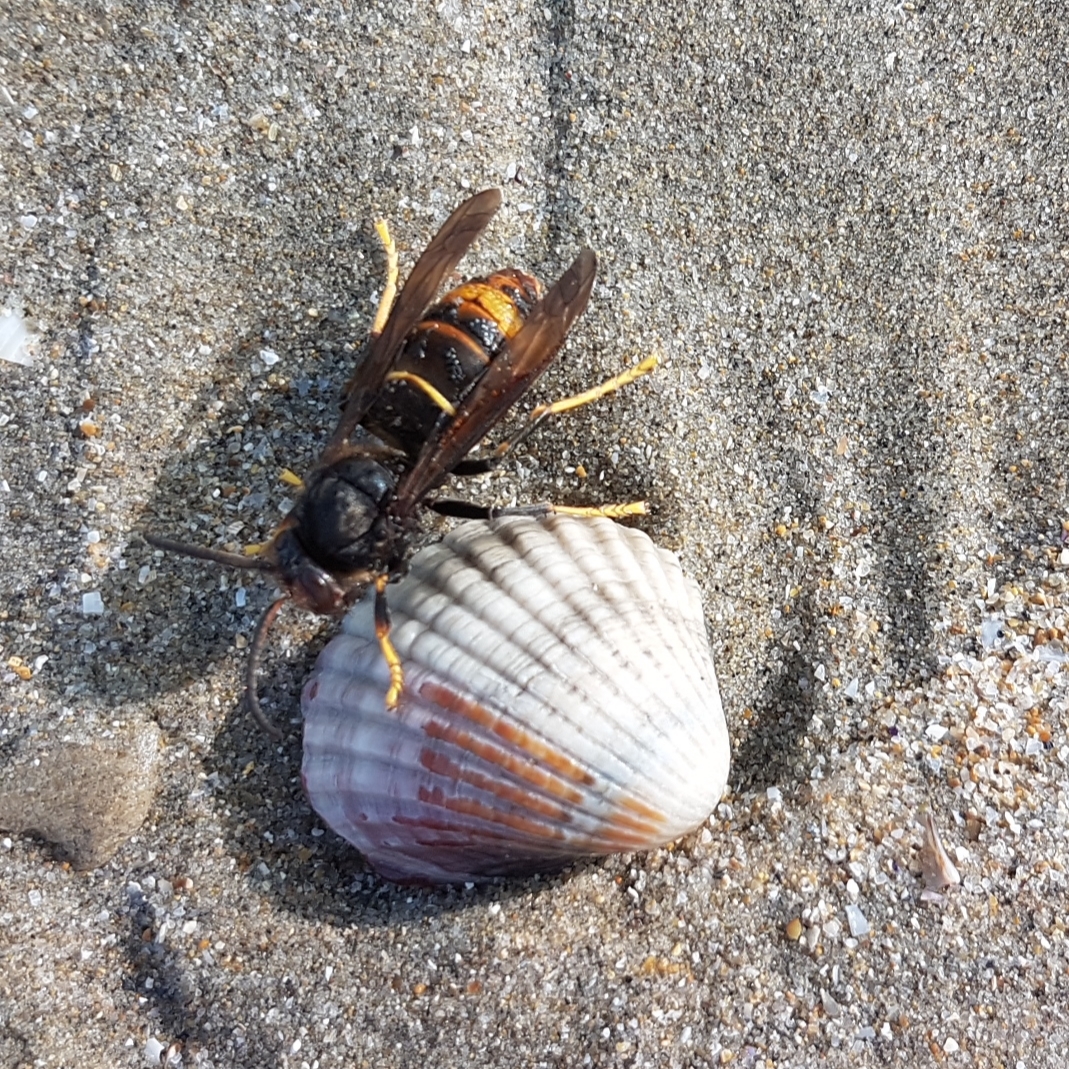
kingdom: Animalia
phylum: Arthropoda
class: Insecta
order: Hymenoptera
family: Vespidae
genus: Vespa
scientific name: Vespa velutina
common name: Asian hornet
